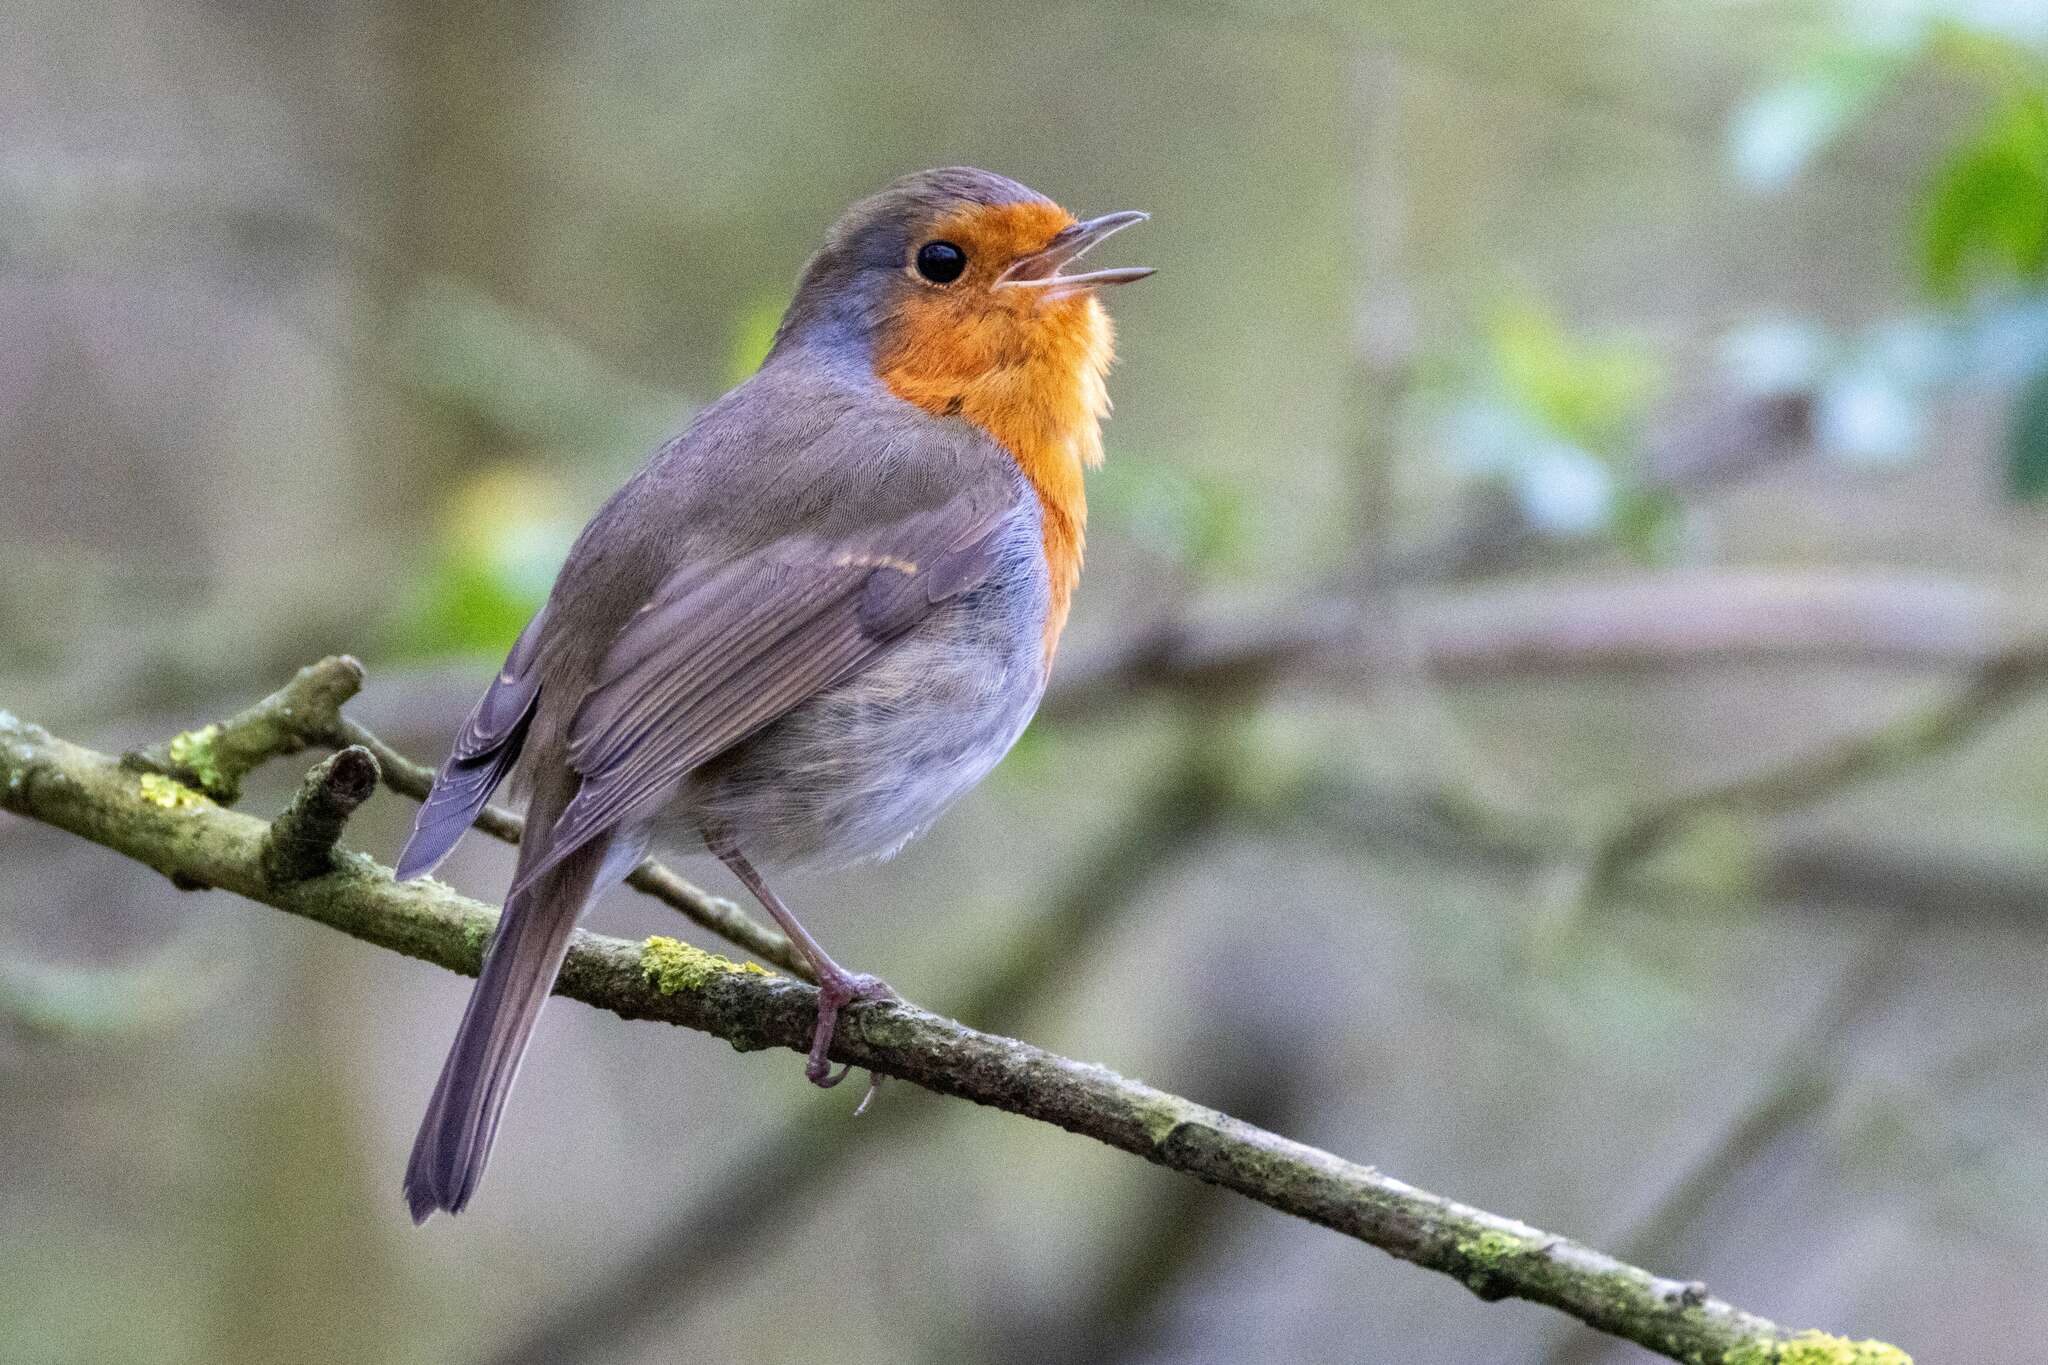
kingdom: Animalia
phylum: Chordata
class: Aves
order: Passeriformes
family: Muscicapidae
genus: Erithacus
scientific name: Erithacus rubecula
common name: European robin
